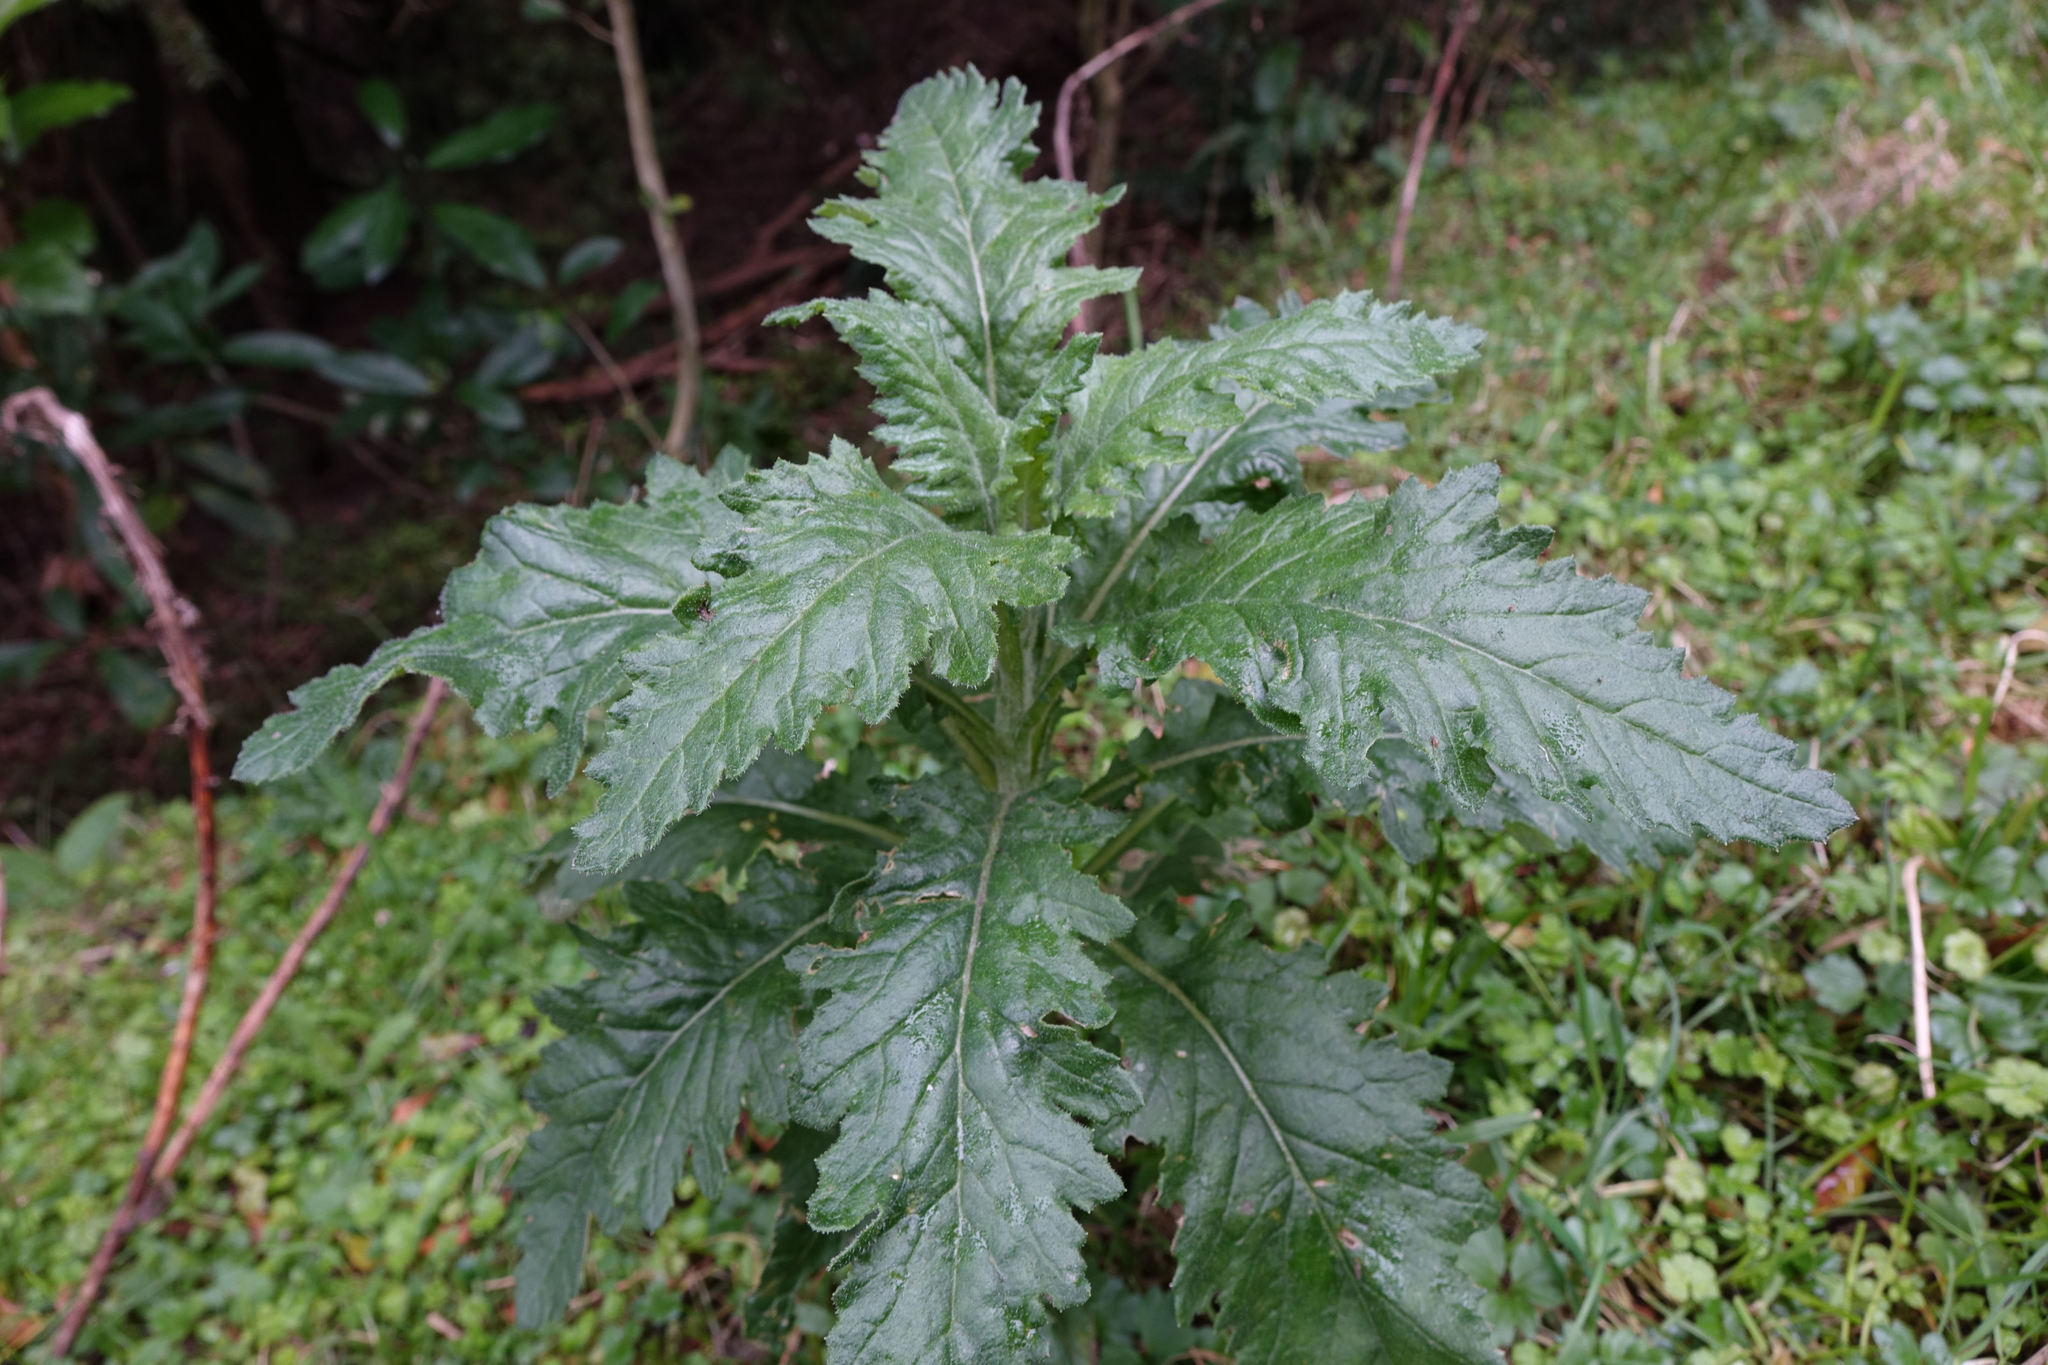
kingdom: Plantae
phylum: Tracheophyta
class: Magnoliopsida
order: Asterales
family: Asteraceae
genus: Senecio
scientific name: Senecio biserratus
